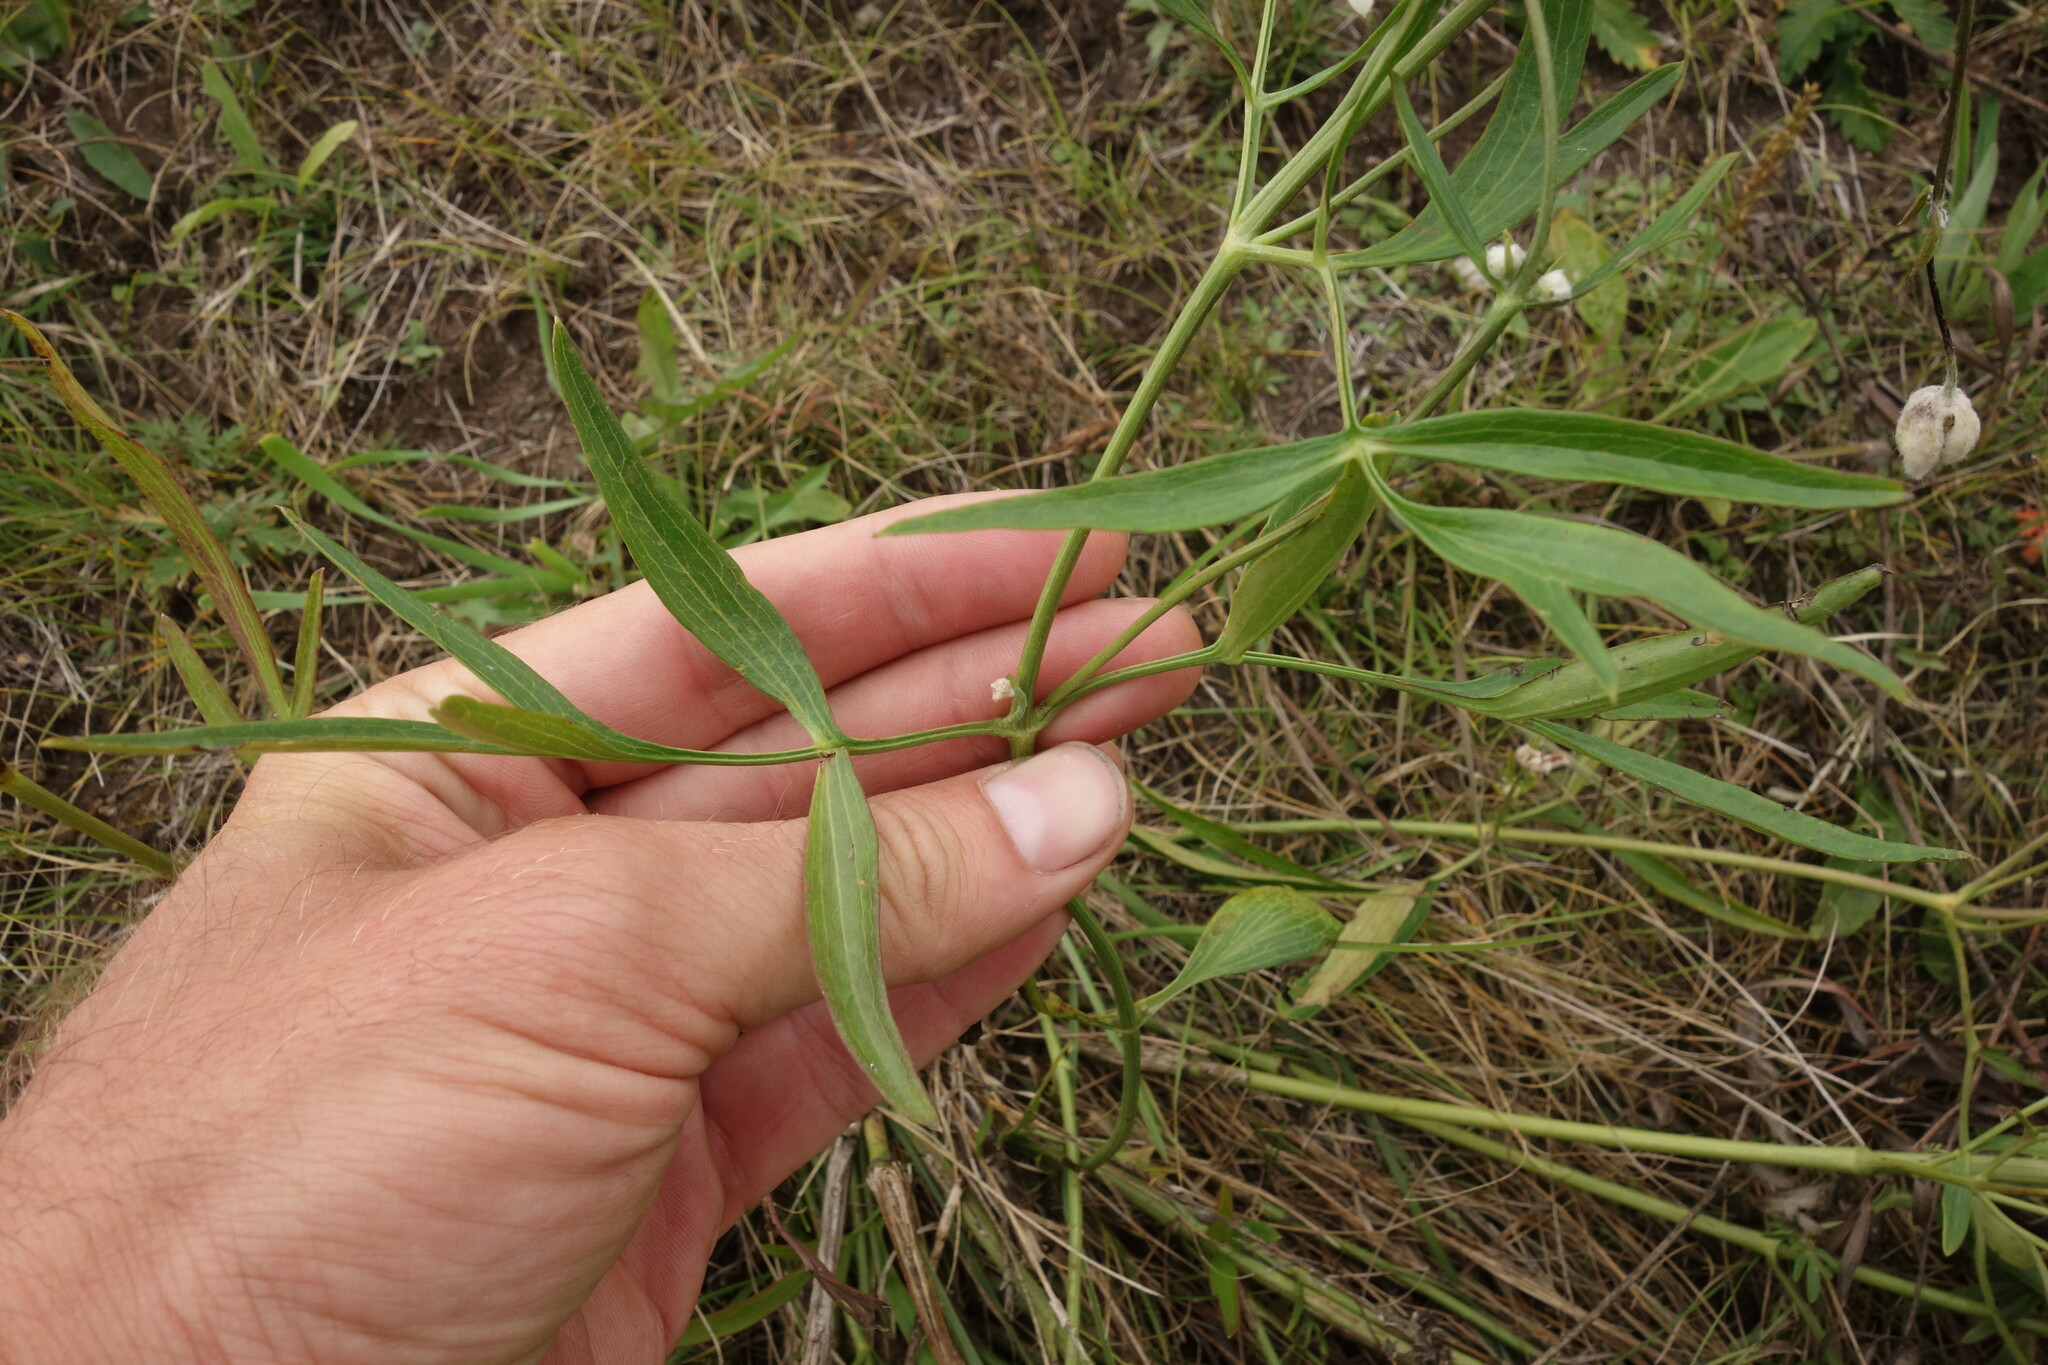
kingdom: Plantae
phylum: Tracheophyta
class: Magnoliopsida
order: Ranunculales
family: Ranunculaceae
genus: Clematis
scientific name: Clematis hexapetala
